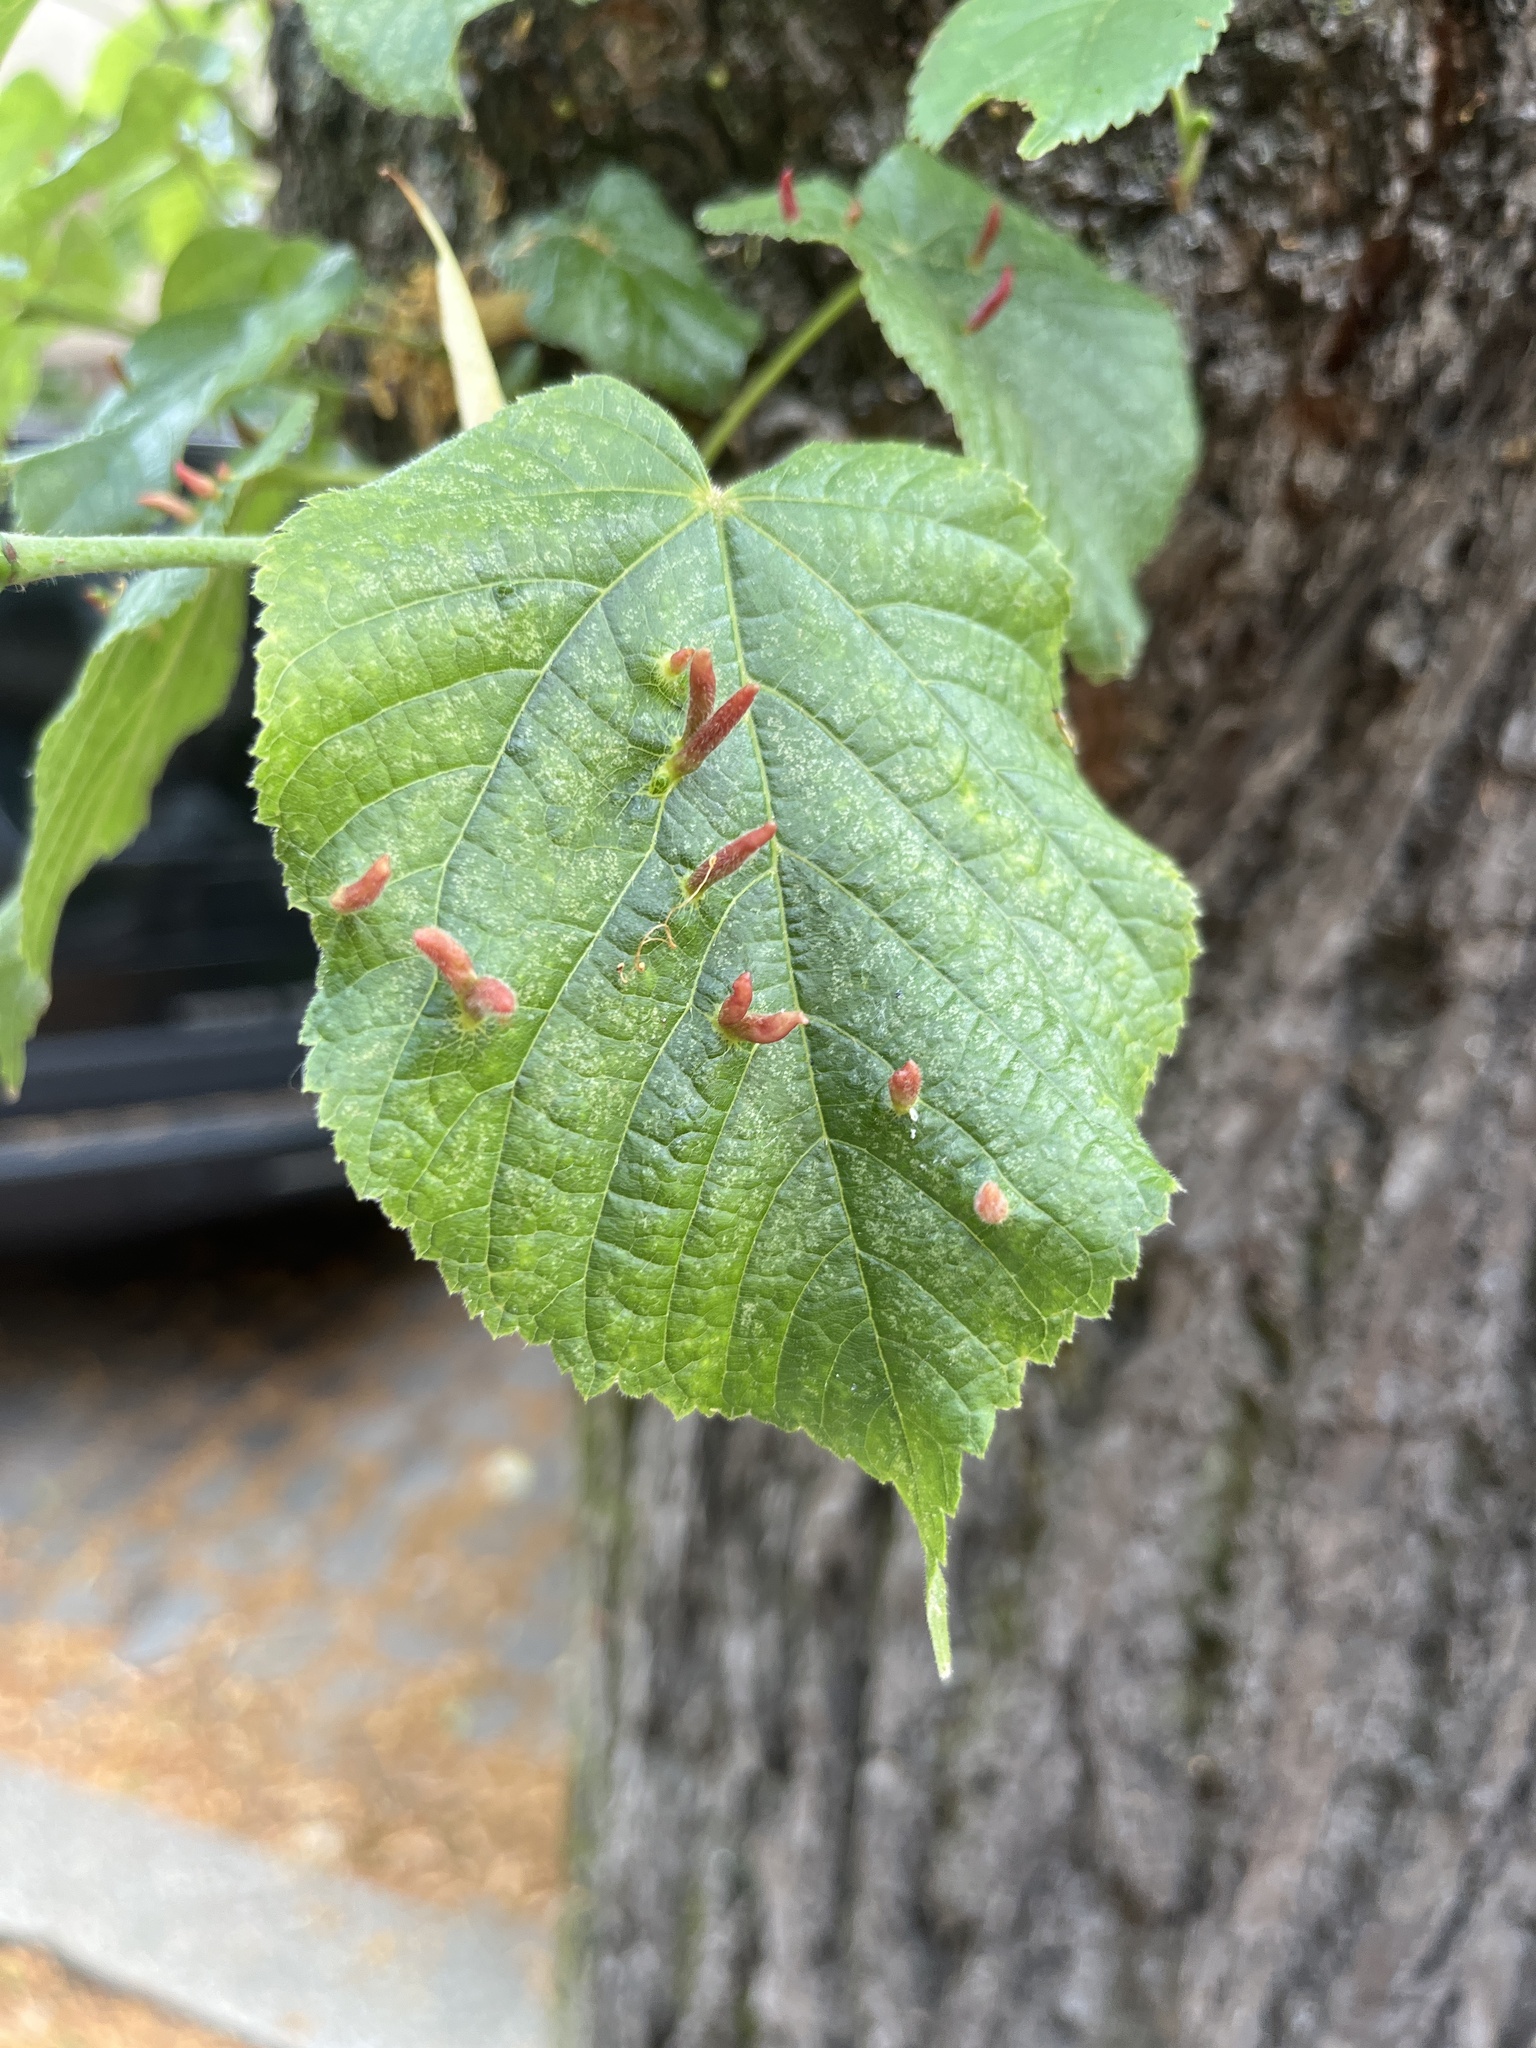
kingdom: Animalia
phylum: Arthropoda
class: Arachnida
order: Trombidiformes
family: Eriophyidae
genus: Eriophyes
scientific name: Eriophyes tiliae
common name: Red nail gall mite
